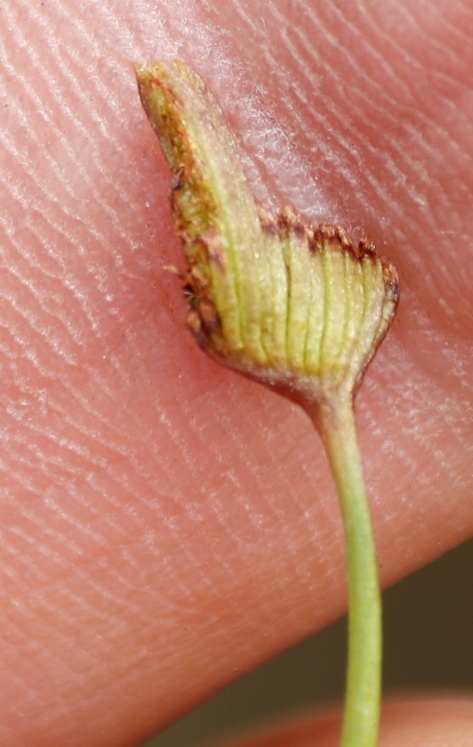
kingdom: Plantae
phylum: Tracheophyta
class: Polypodiopsida
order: Schizaeales
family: Schizaeaceae
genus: Schizaea
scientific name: Schizaea pectinata
